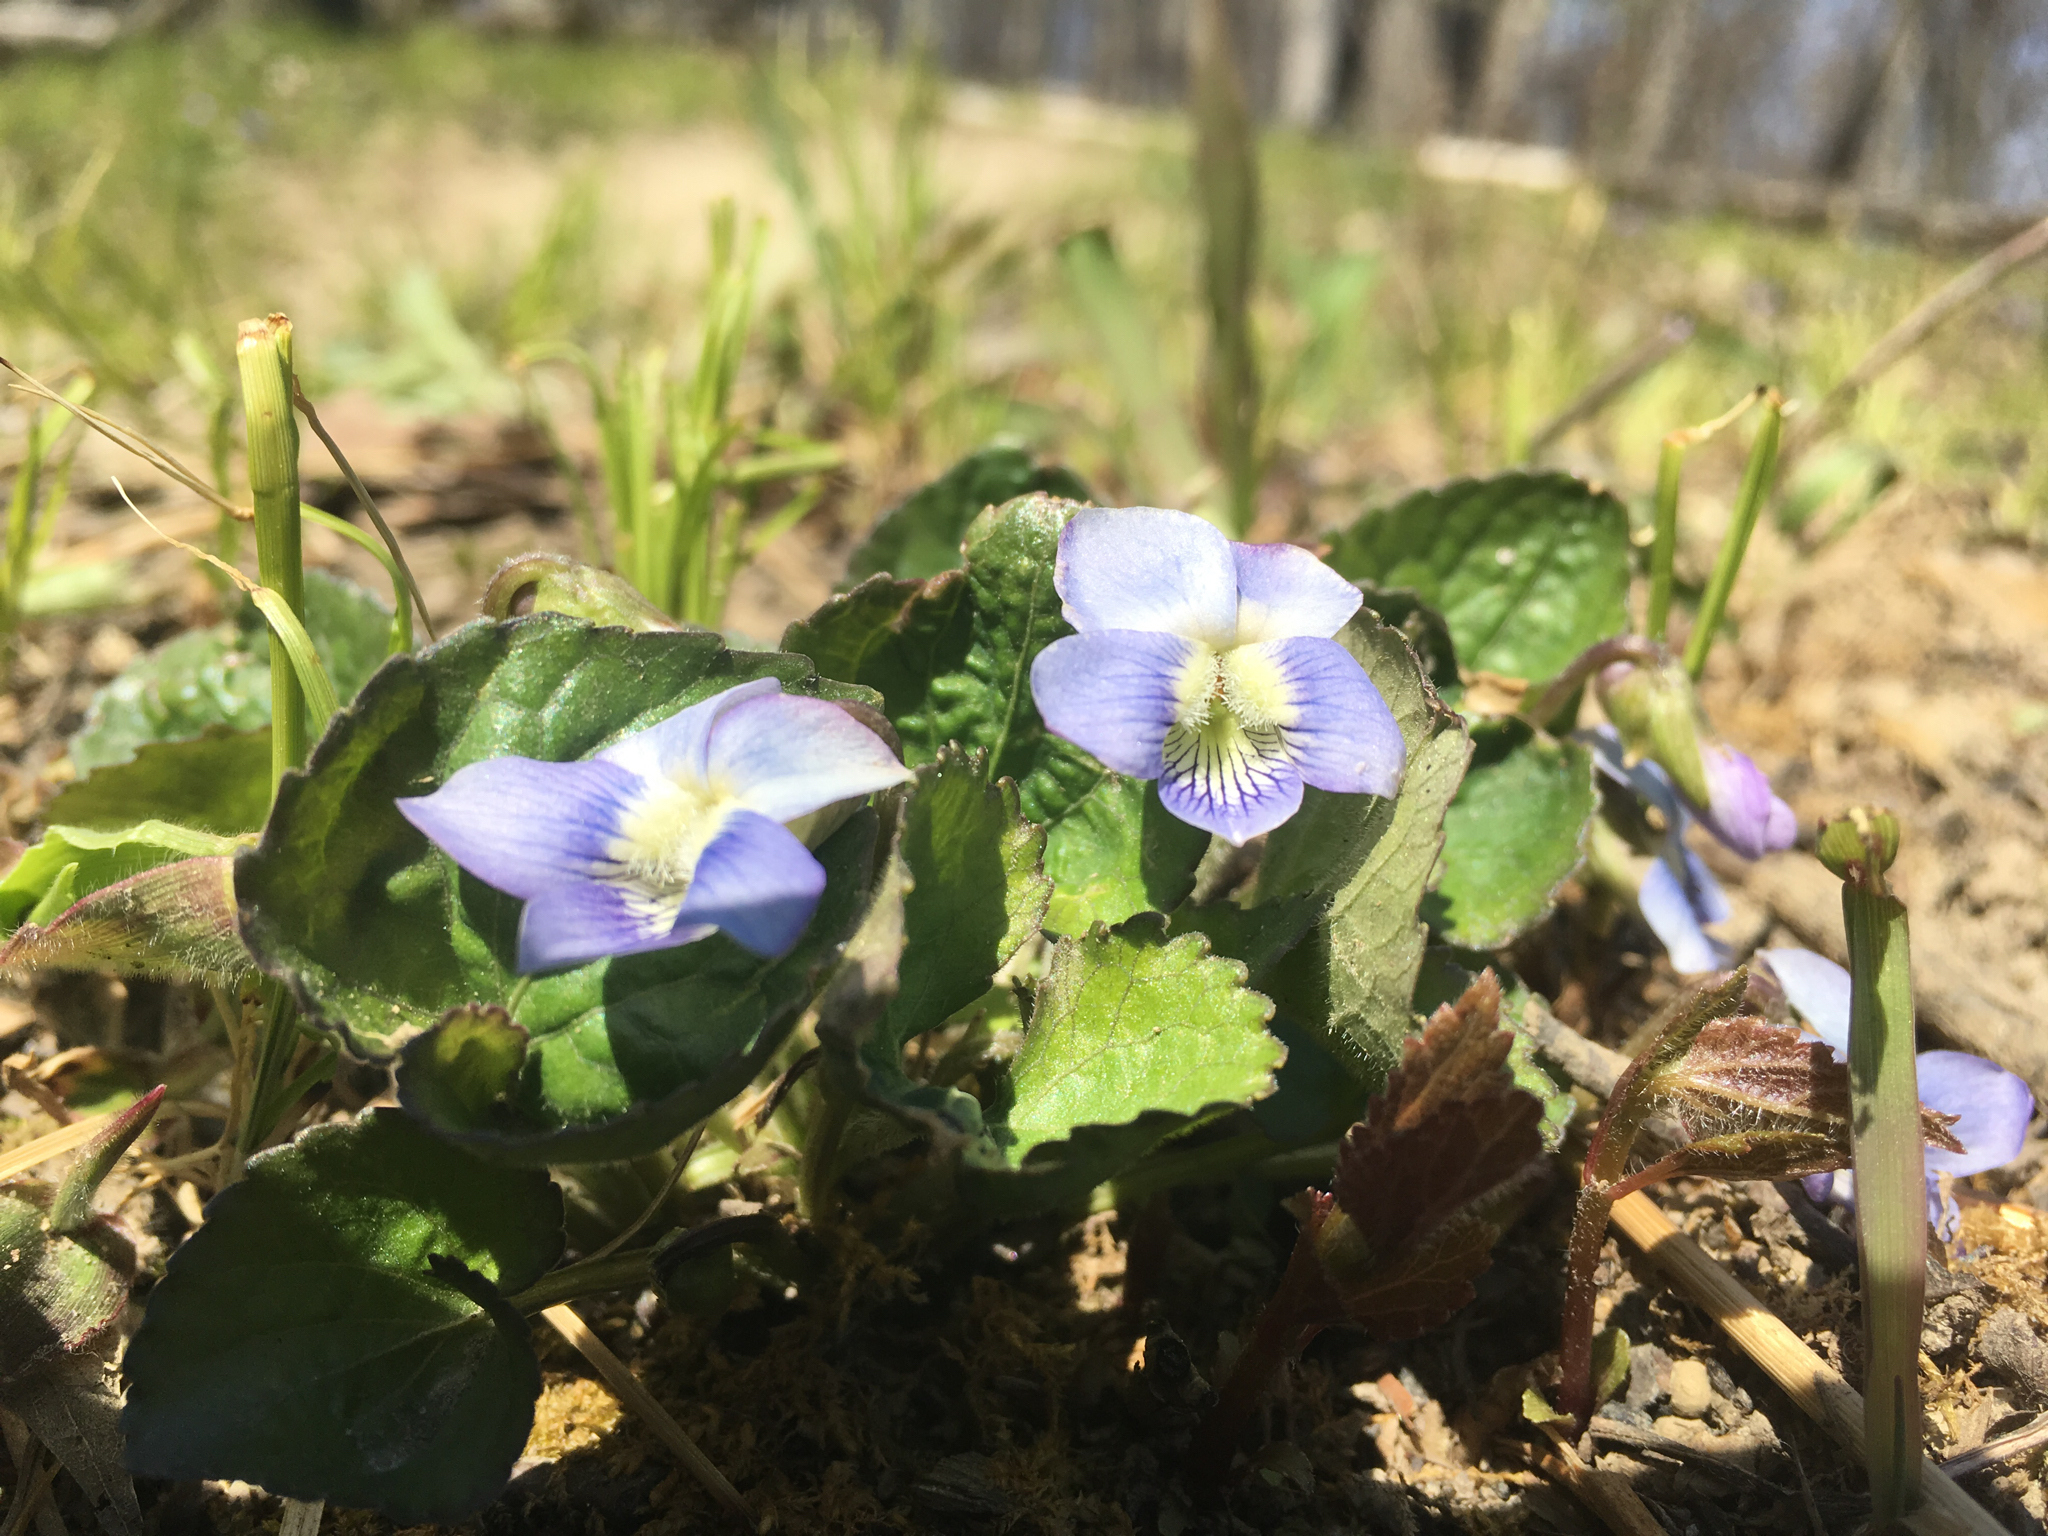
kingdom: Plantae
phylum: Tracheophyta
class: Magnoliopsida
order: Malpighiales
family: Violaceae
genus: Viola
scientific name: Viola sororia
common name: Dooryard violet
